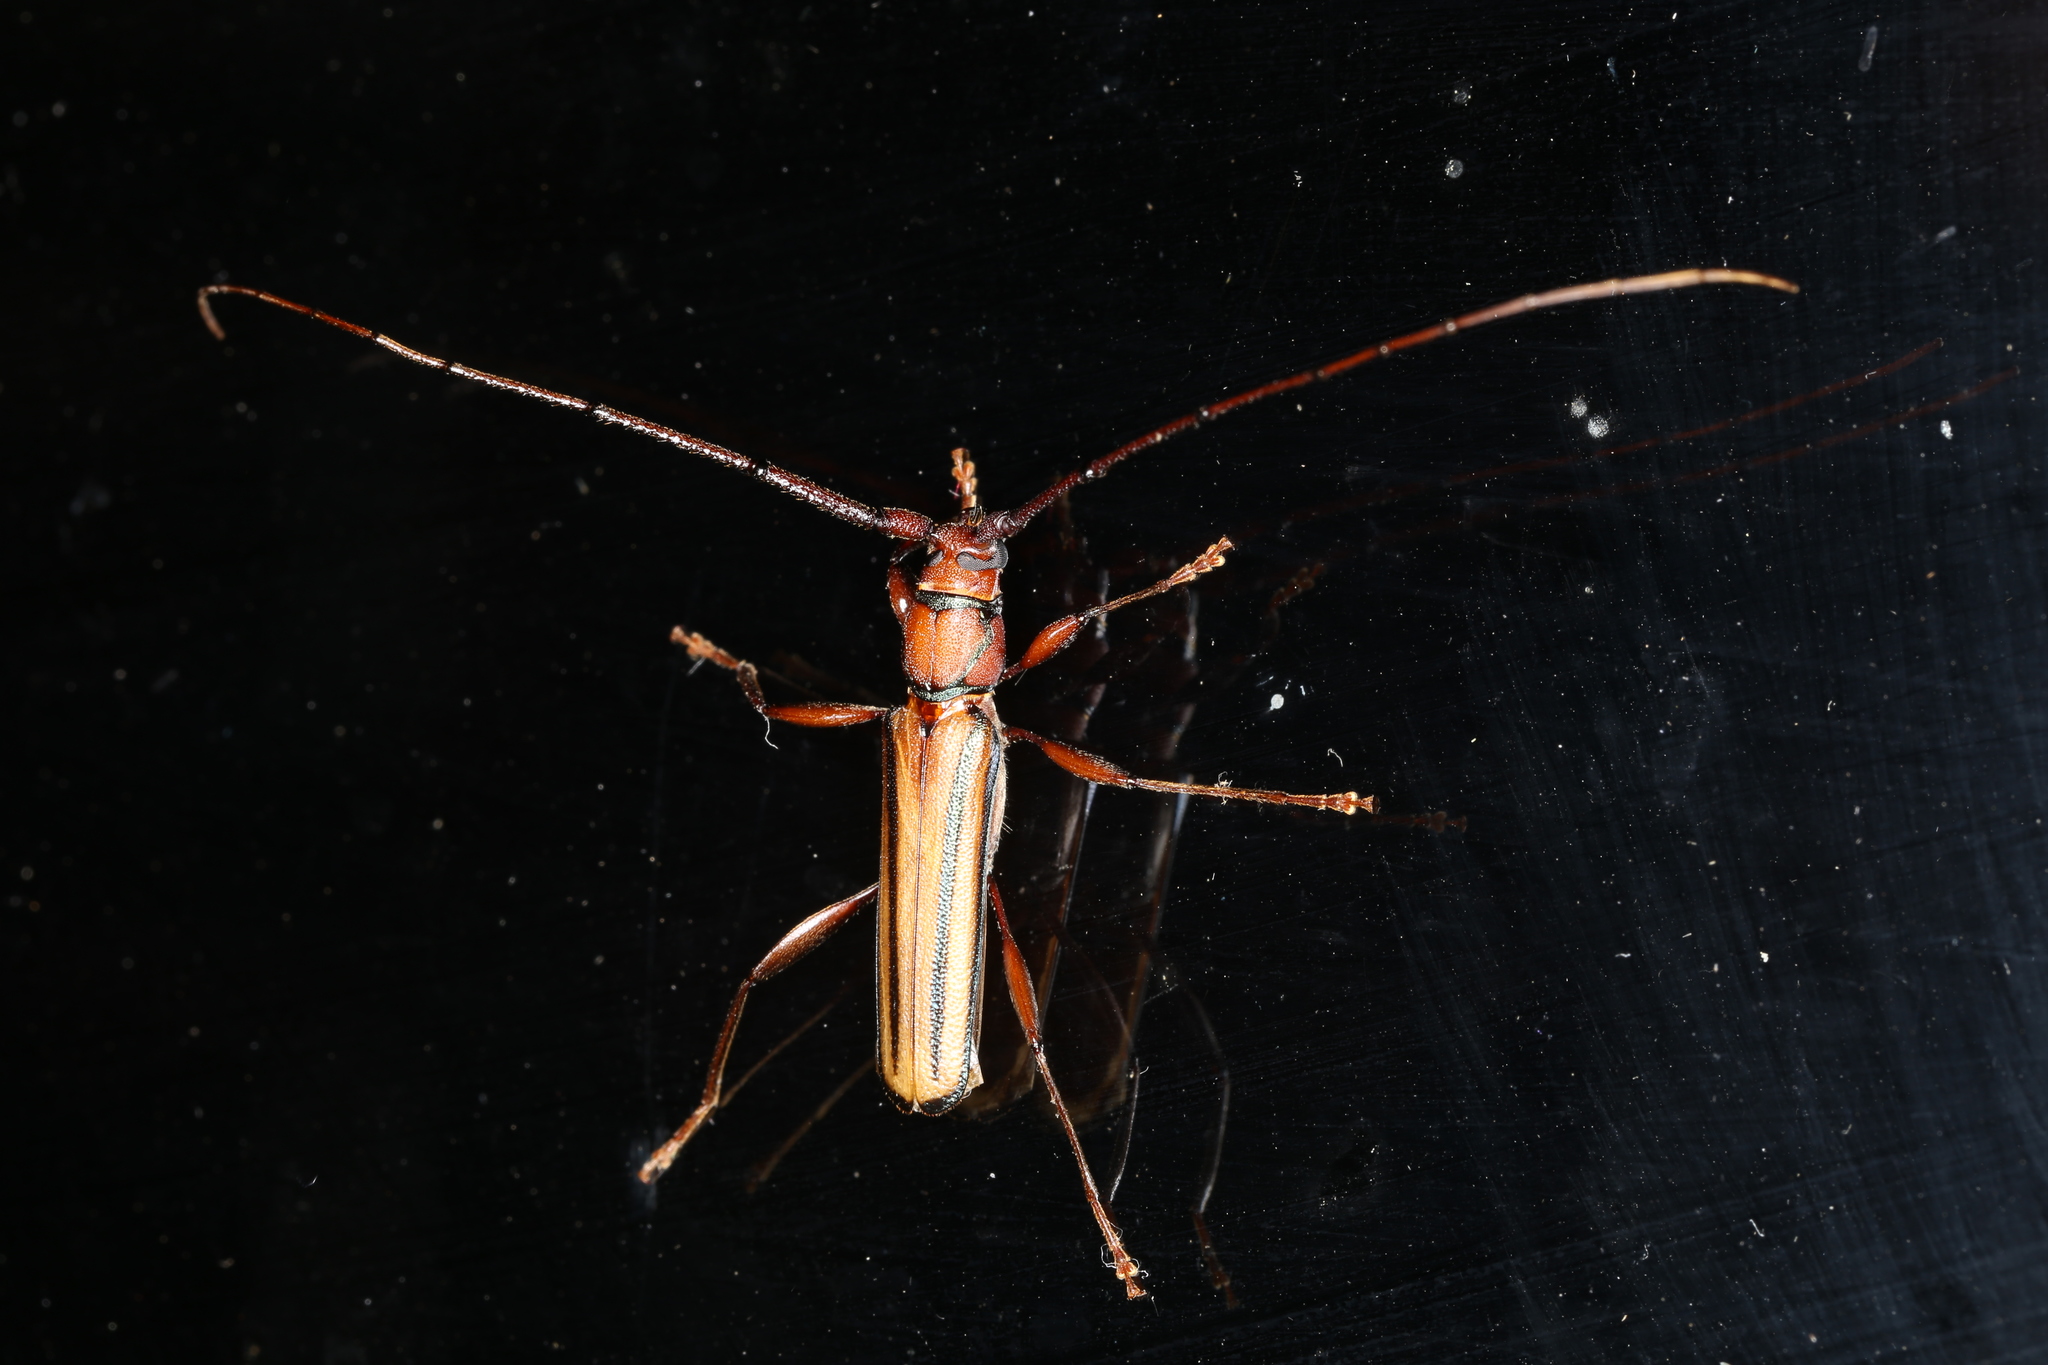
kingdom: Animalia
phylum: Arthropoda
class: Insecta
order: Coleoptera
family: Cerambycidae
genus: Xystrocera
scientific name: Xystrocera globosa
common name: Peach-tree longhorn
